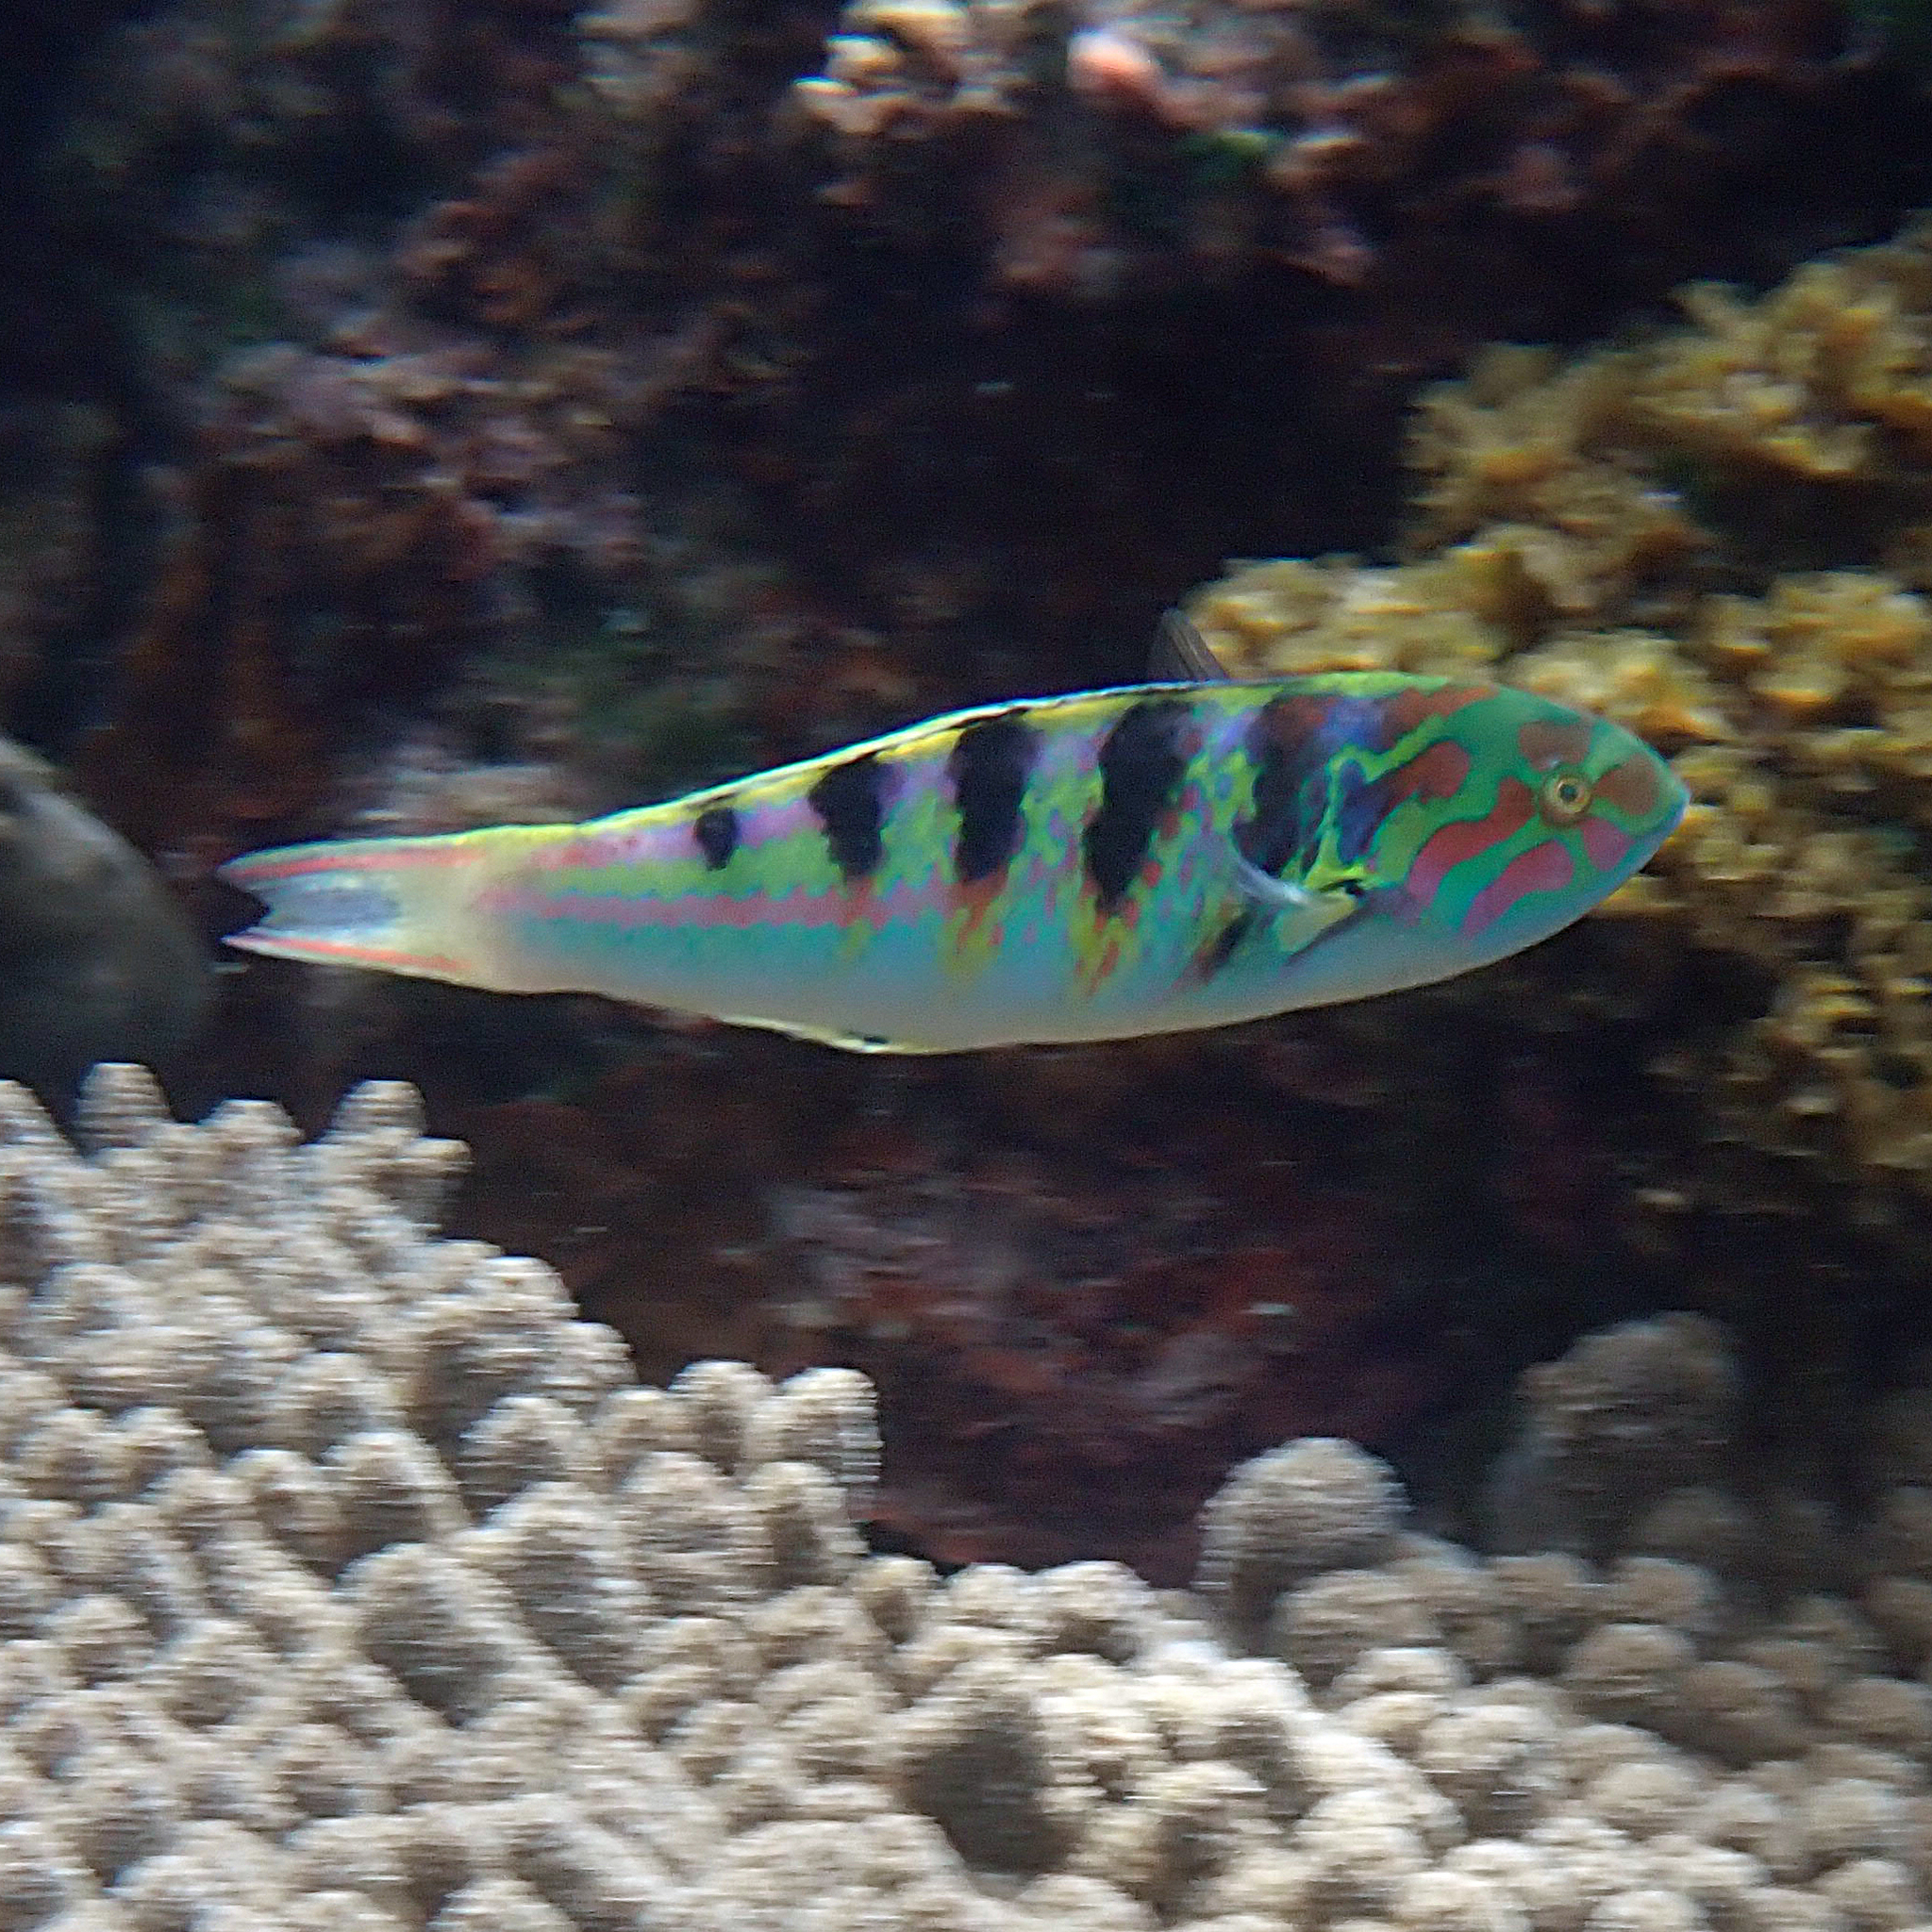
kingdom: Animalia
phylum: Chordata
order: Perciformes
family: Labridae
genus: Thalassoma
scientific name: Thalassoma hardwicke
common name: Sixbar wrasse
